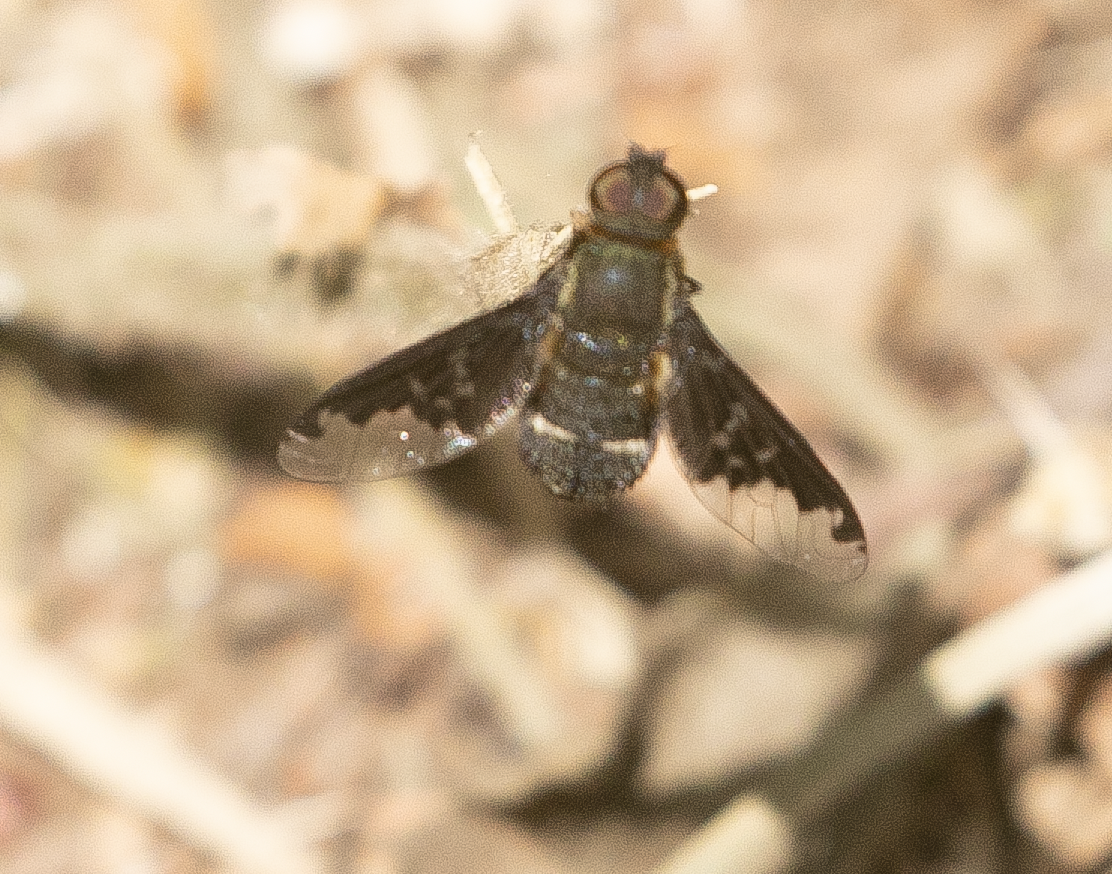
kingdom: Animalia
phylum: Arthropoda
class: Insecta
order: Diptera
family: Bombyliidae
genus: Hemipenthes
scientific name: Hemipenthes velutina
